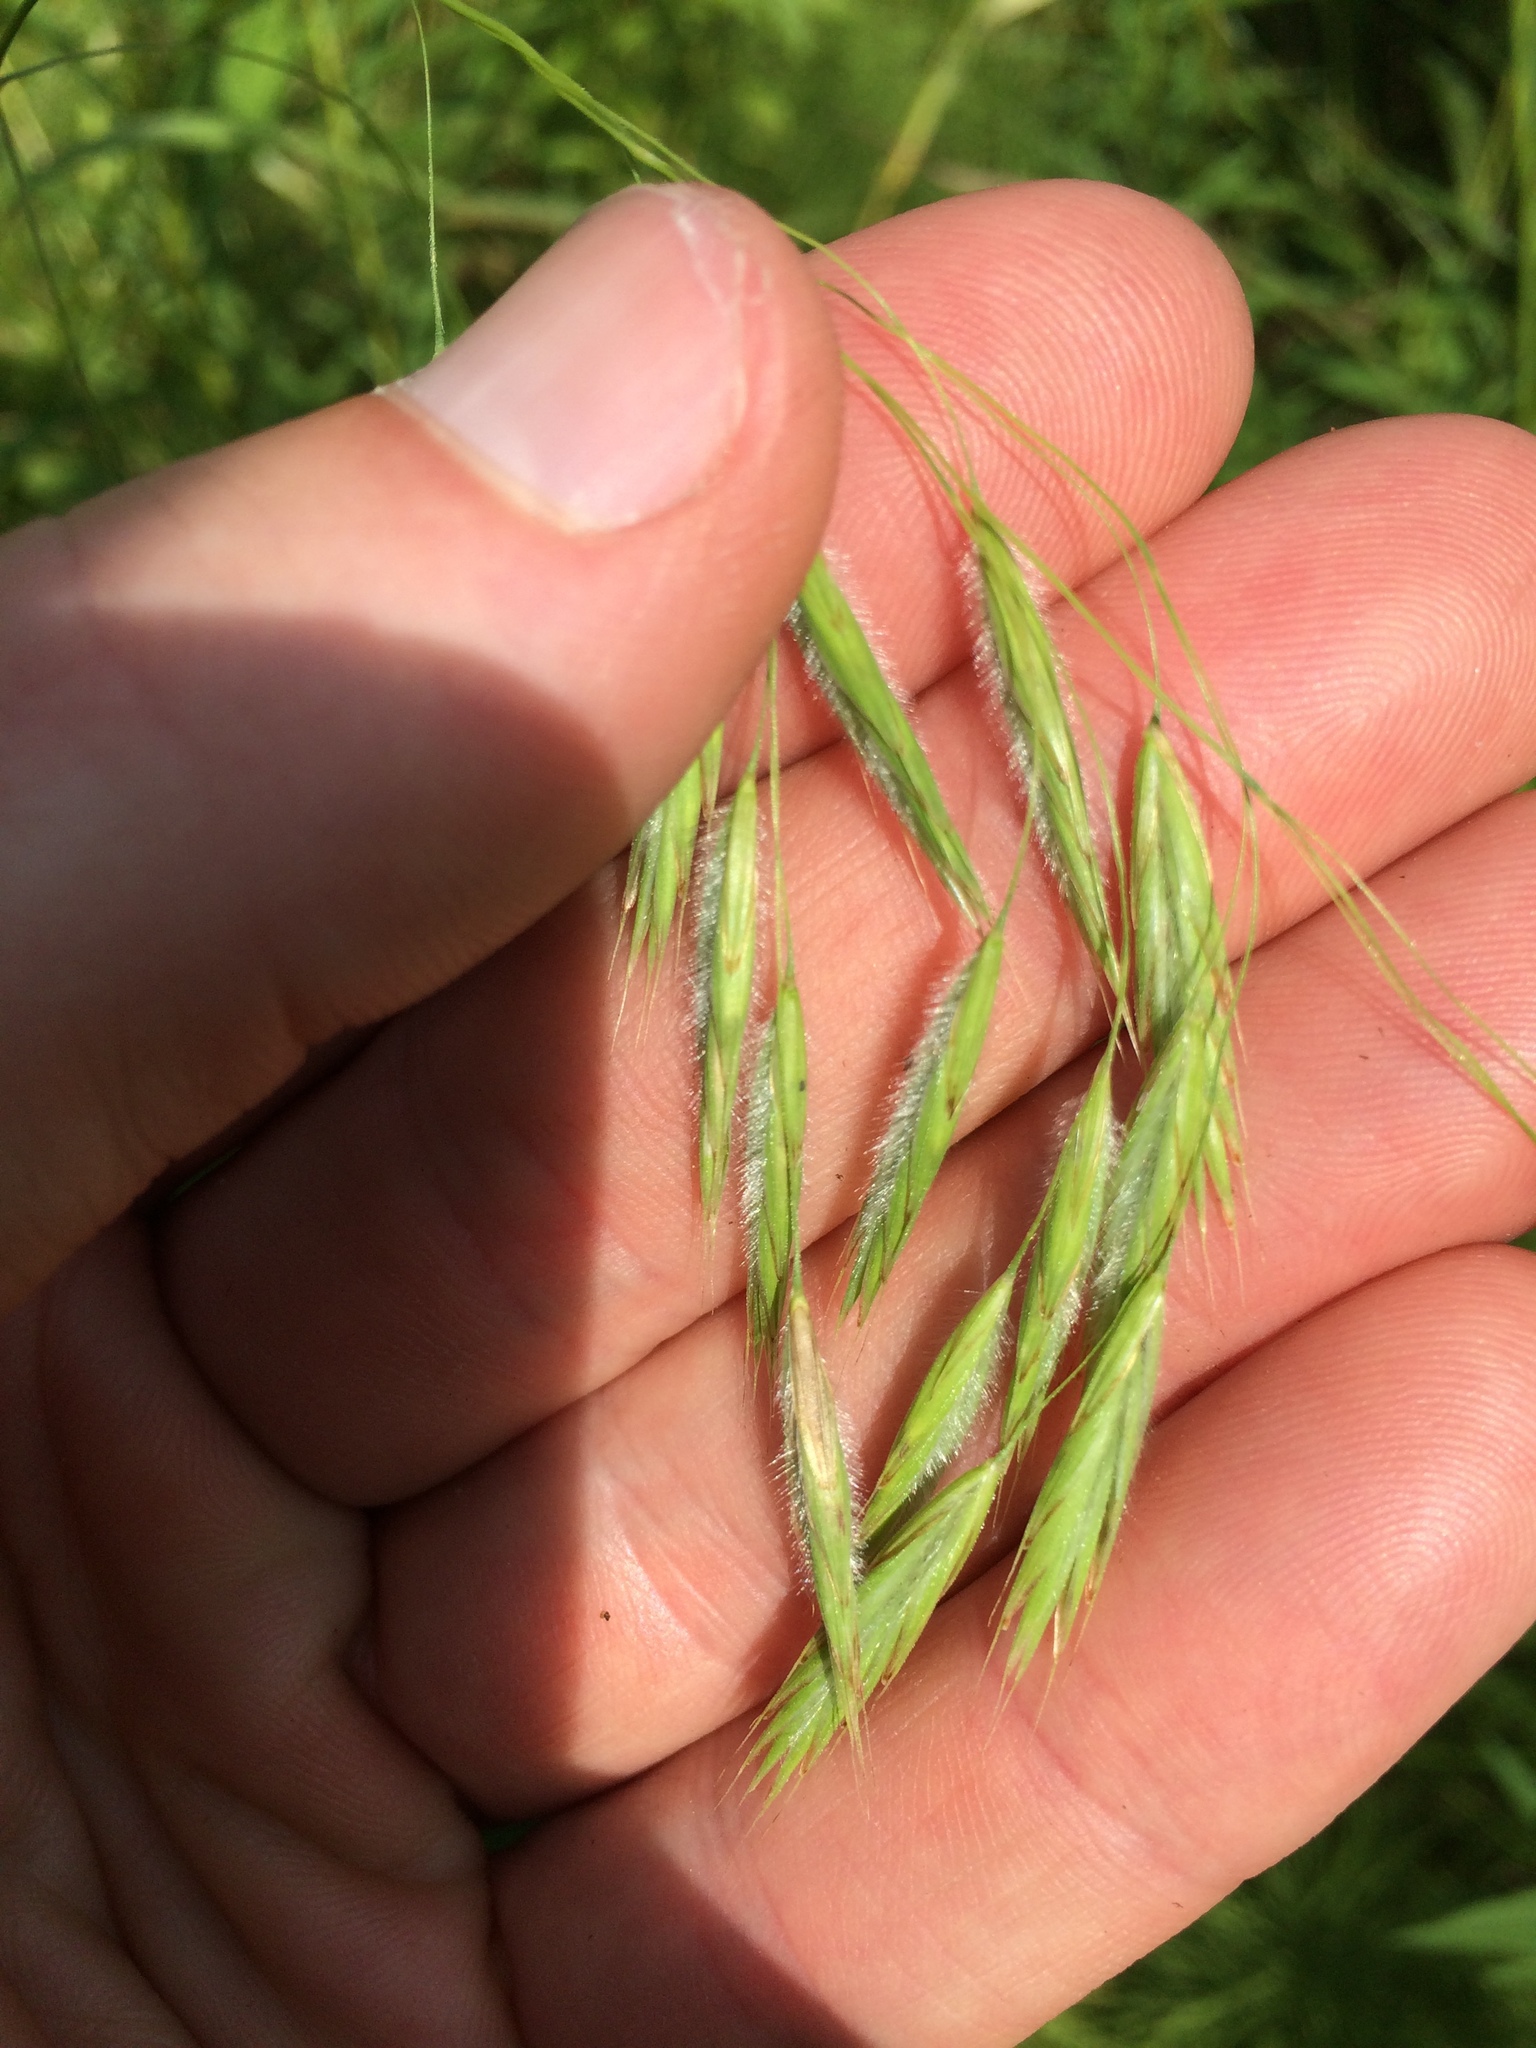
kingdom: Plantae
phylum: Tracheophyta
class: Liliopsida
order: Poales
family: Poaceae
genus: Bromus
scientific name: Bromus ciliatus
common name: Fringe brome
